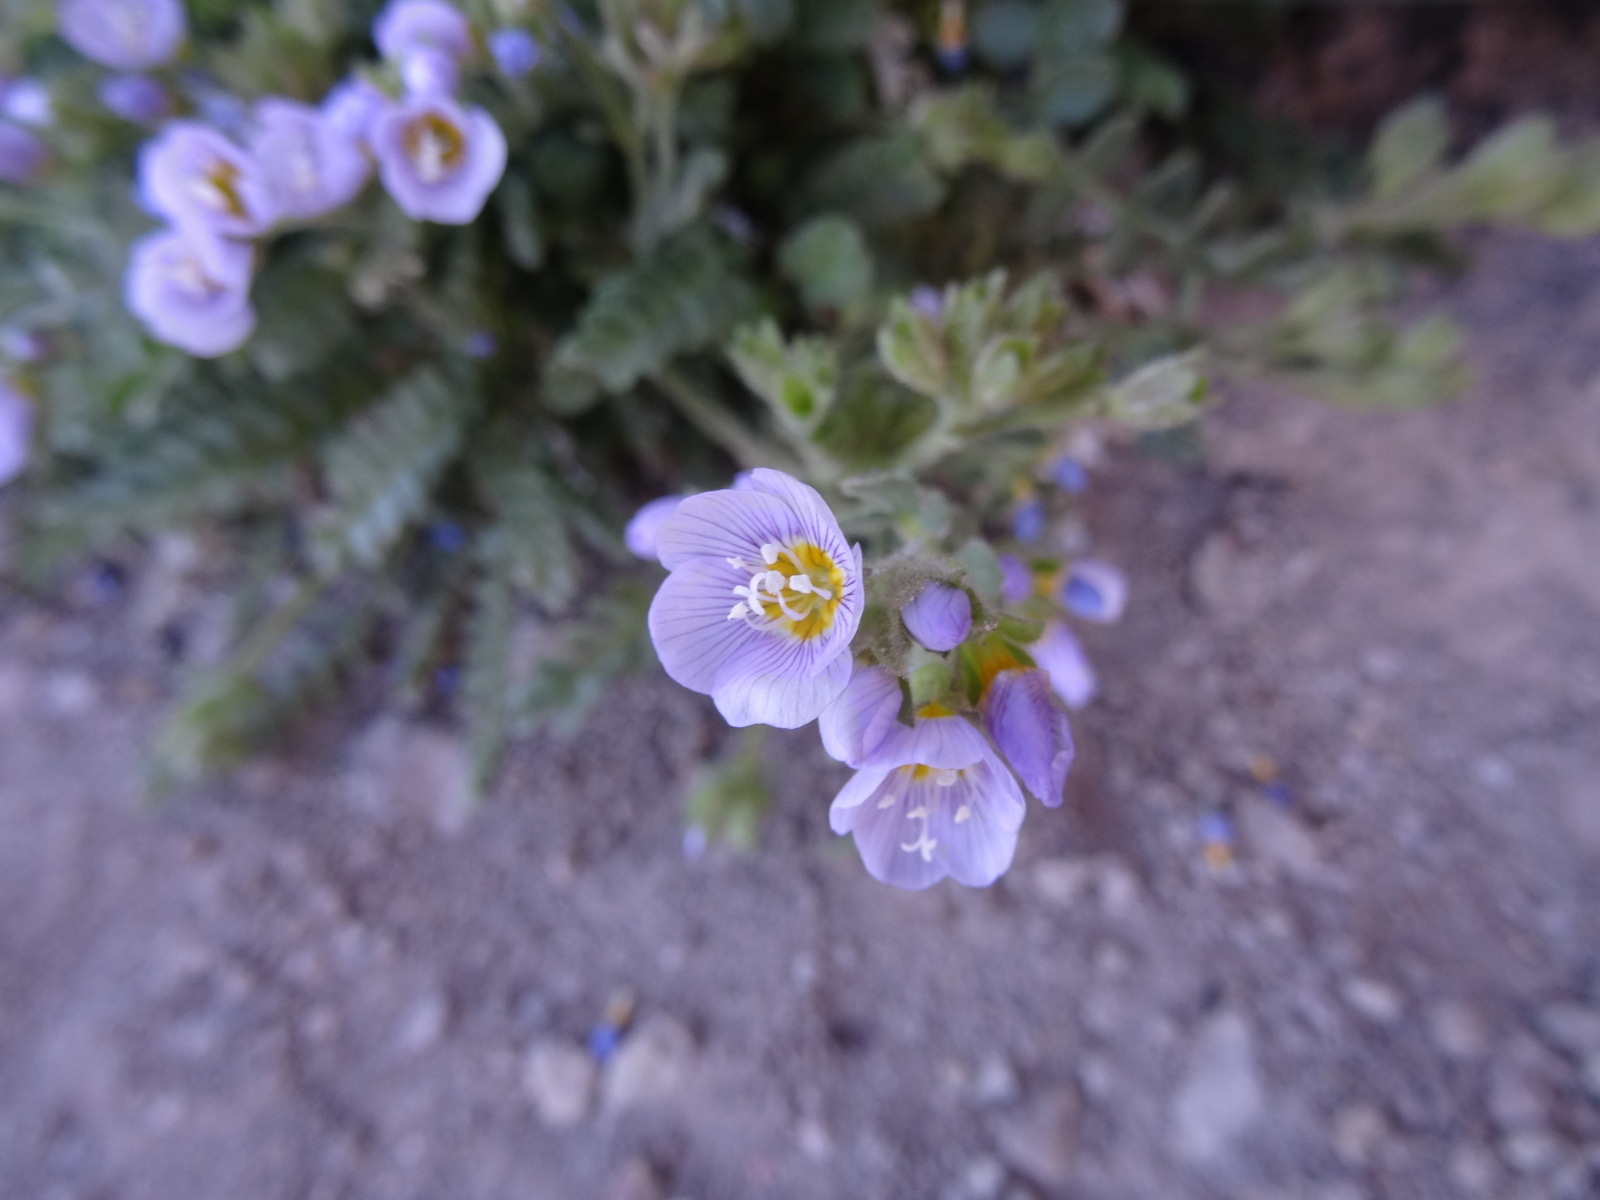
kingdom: Plantae
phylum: Tracheophyta
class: Magnoliopsida
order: Ericales
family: Polemoniaceae
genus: Polemonium
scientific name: Polemonium pulcherrimum
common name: Short jacob's-ladder
